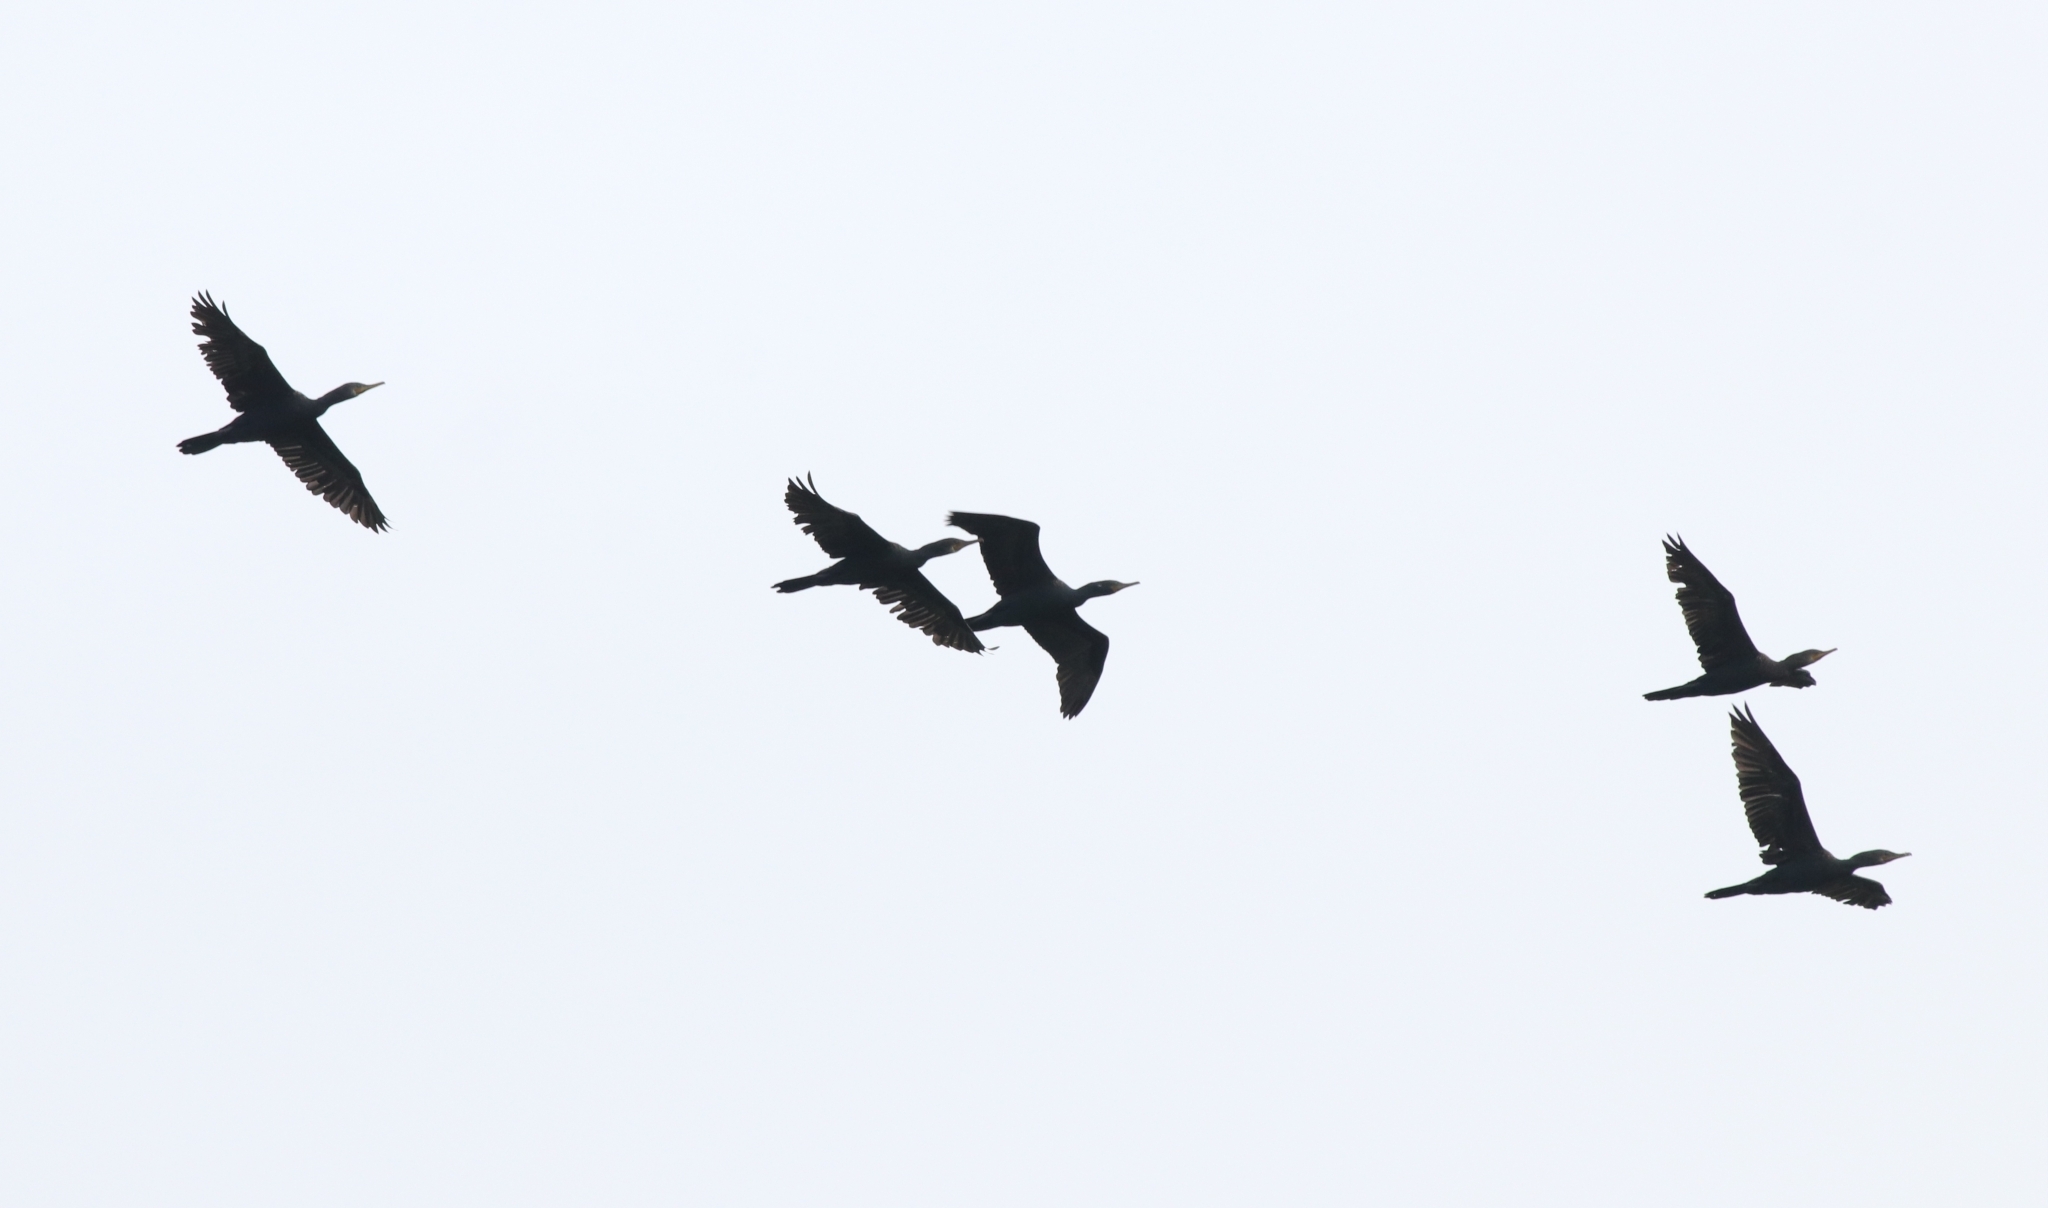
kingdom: Animalia
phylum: Chordata
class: Aves
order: Suliformes
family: Phalacrocoracidae
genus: Phalacrocorax
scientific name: Phalacrocorax fuscicollis
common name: Indian cormorant
